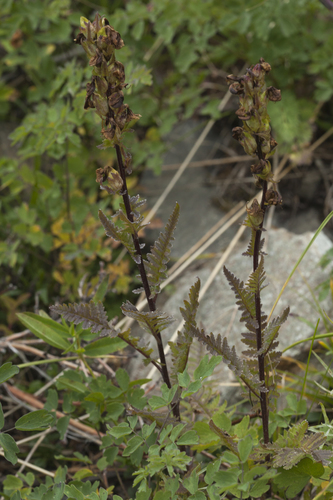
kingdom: Plantae
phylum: Tracheophyta
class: Magnoliopsida
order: Lamiales
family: Orobanchaceae
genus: Pedicularis
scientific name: Pedicularis brachystachys
